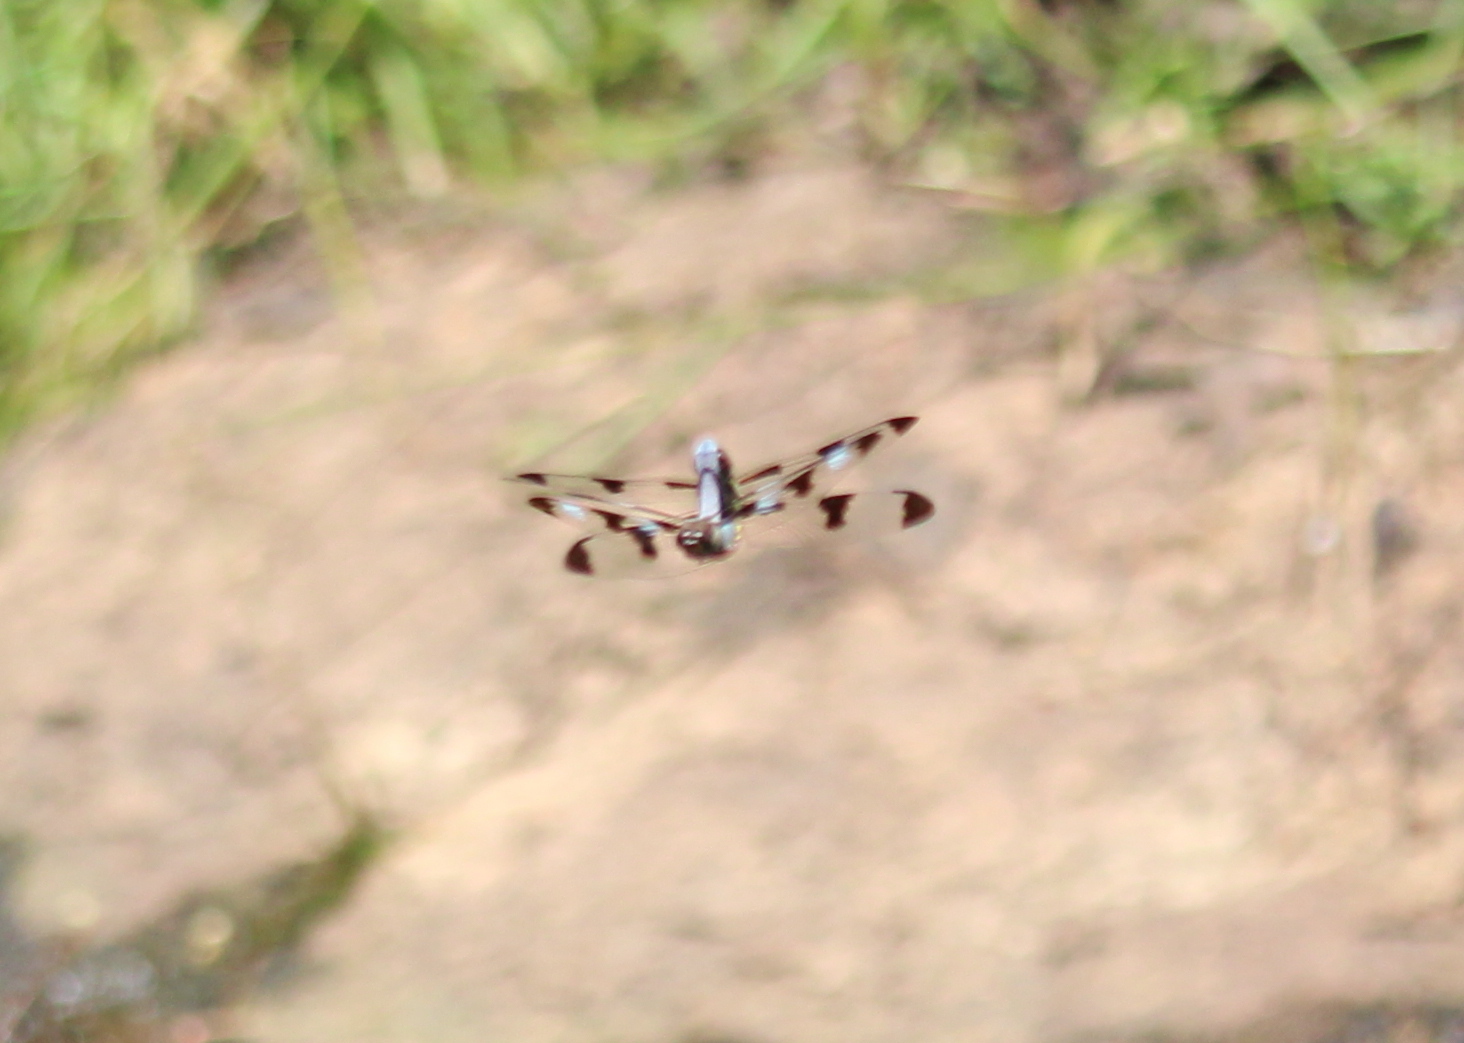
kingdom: Animalia
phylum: Arthropoda
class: Insecta
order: Odonata
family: Libellulidae
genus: Libellula
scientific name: Libellula pulchella
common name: Twelve-spotted skimmer
